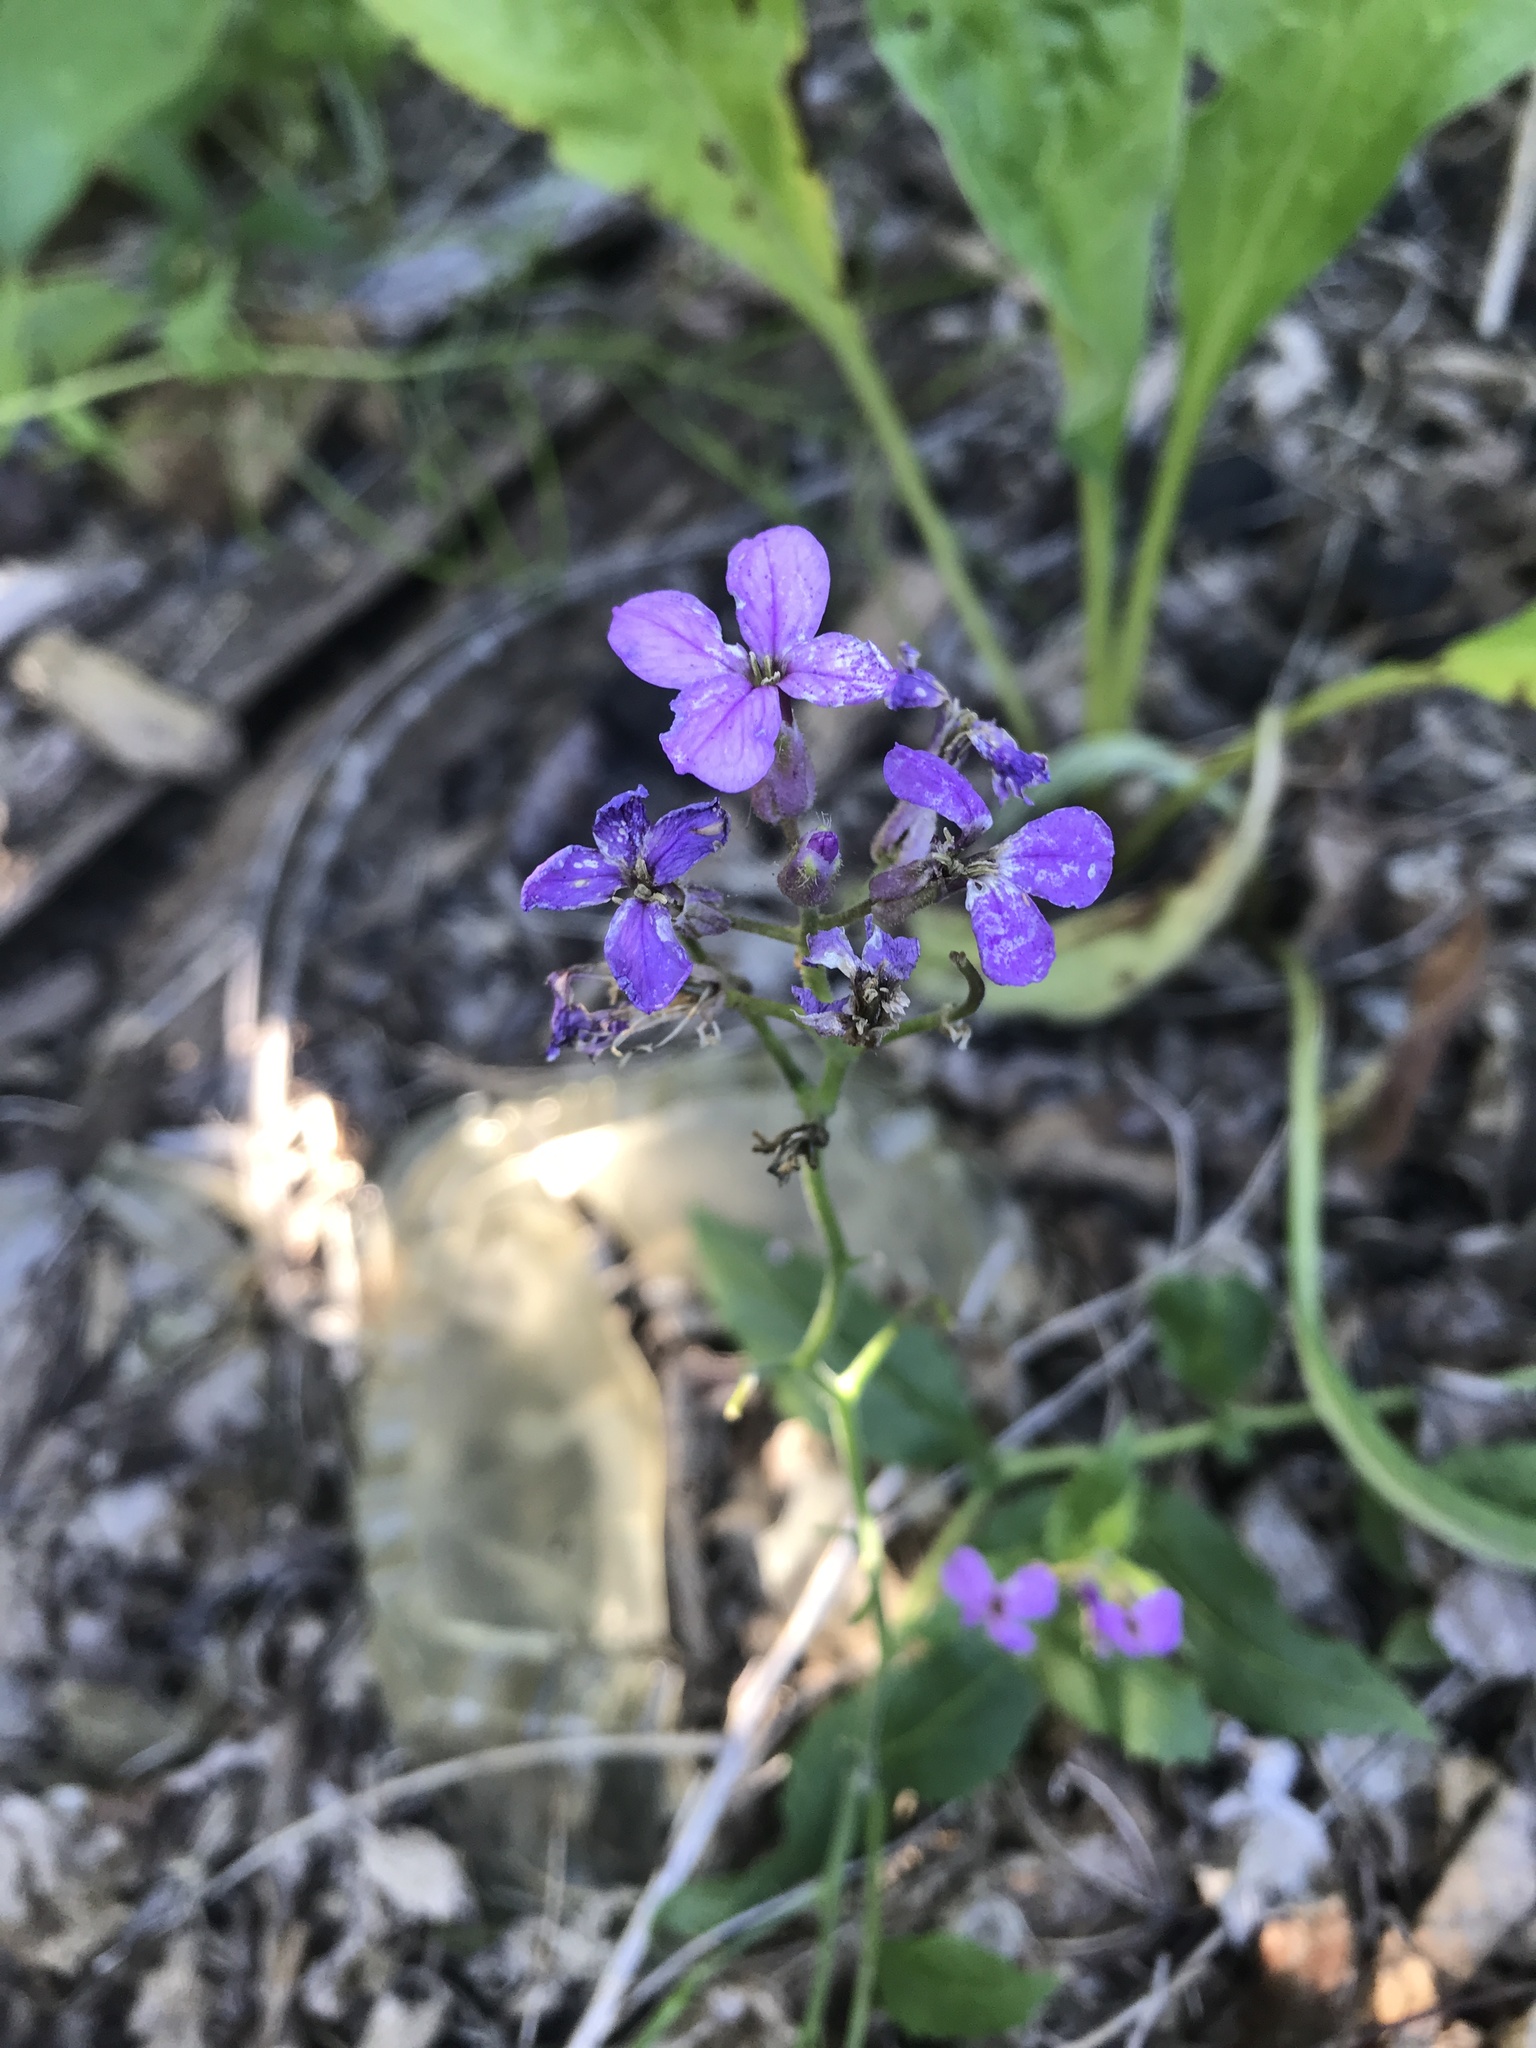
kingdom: Plantae
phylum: Tracheophyta
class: Magnoliopsida
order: Brassicales
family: Brassicaceae
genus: Hesperis
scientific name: Hesperis matronalis
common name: Dame's-violet
